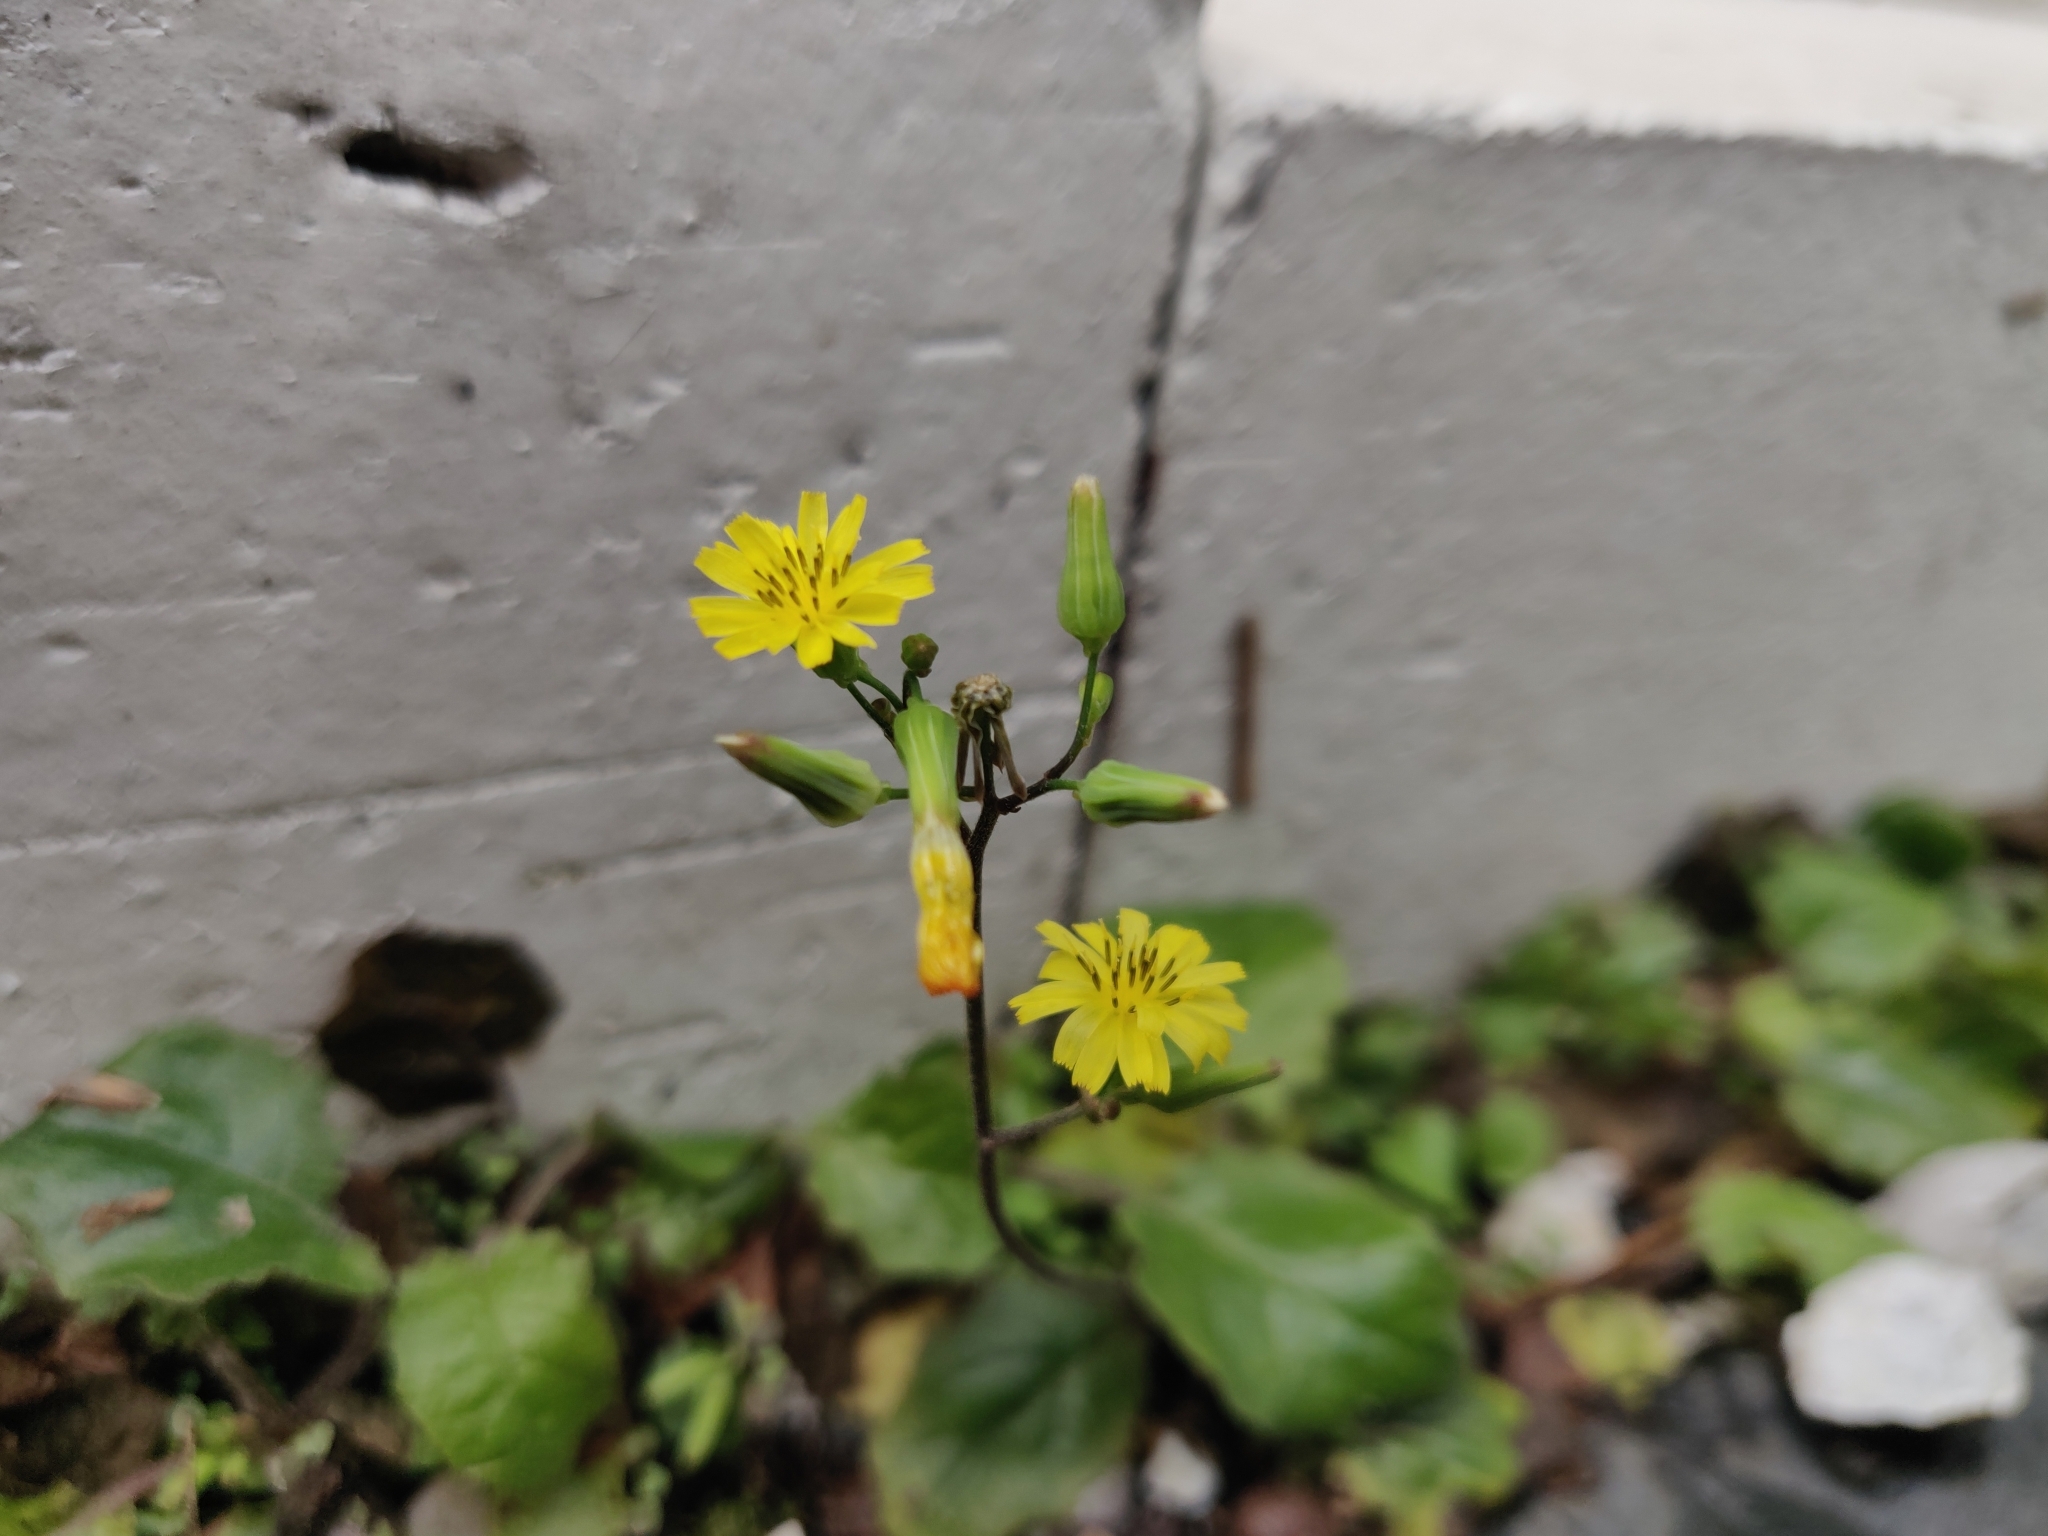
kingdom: Plantae
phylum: Tracheophyta
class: Magnoliopsida
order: Asterales
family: Asteraceae
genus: Youngia
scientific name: Youngia japonica
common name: Oriental false hawksbeard
